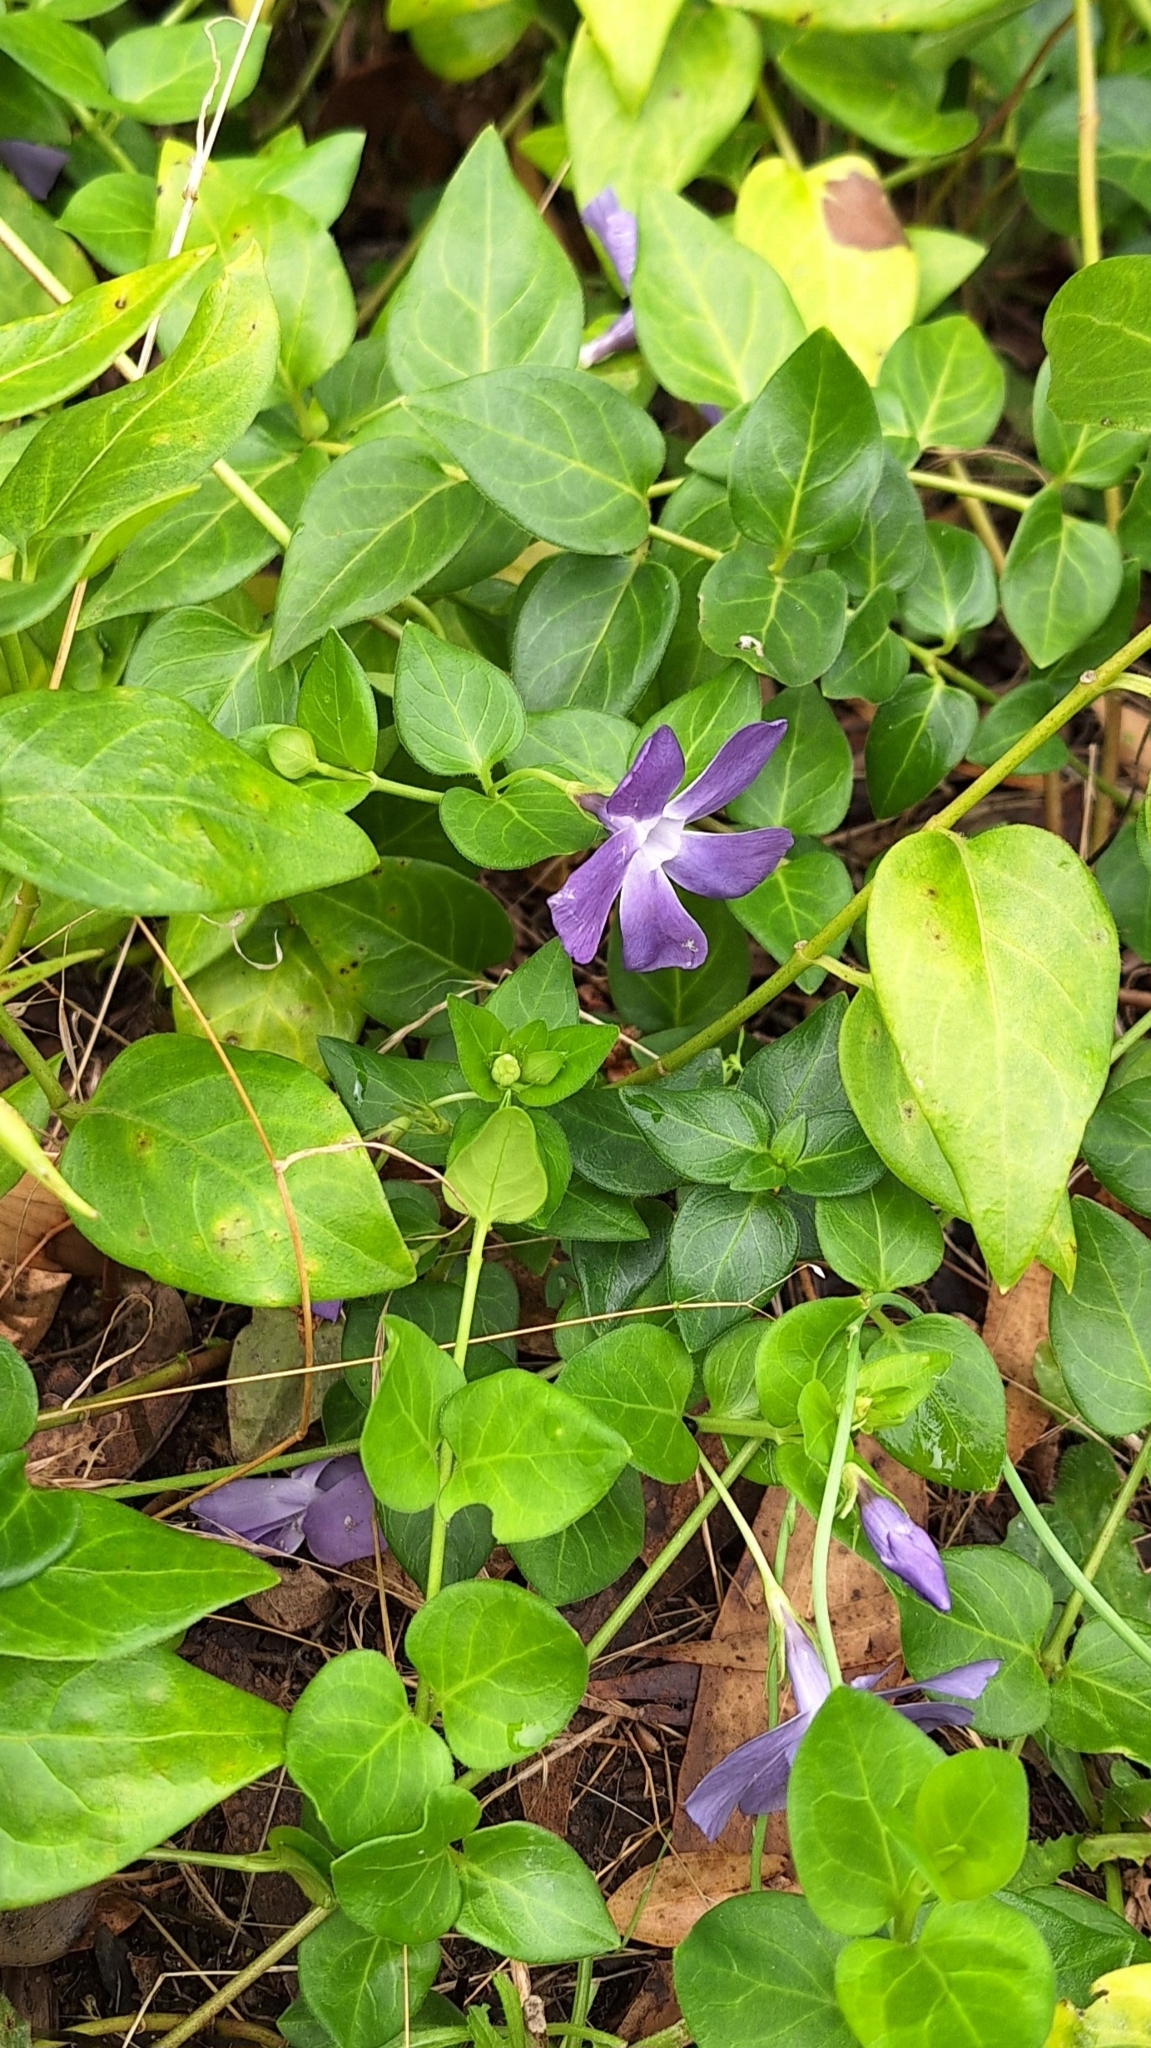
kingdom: Plantae
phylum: Tracheophyta
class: Magnoliopsida
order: Gentianales
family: Apocynaceae
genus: Vinca
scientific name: Vinca major
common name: Greater periwinkle
